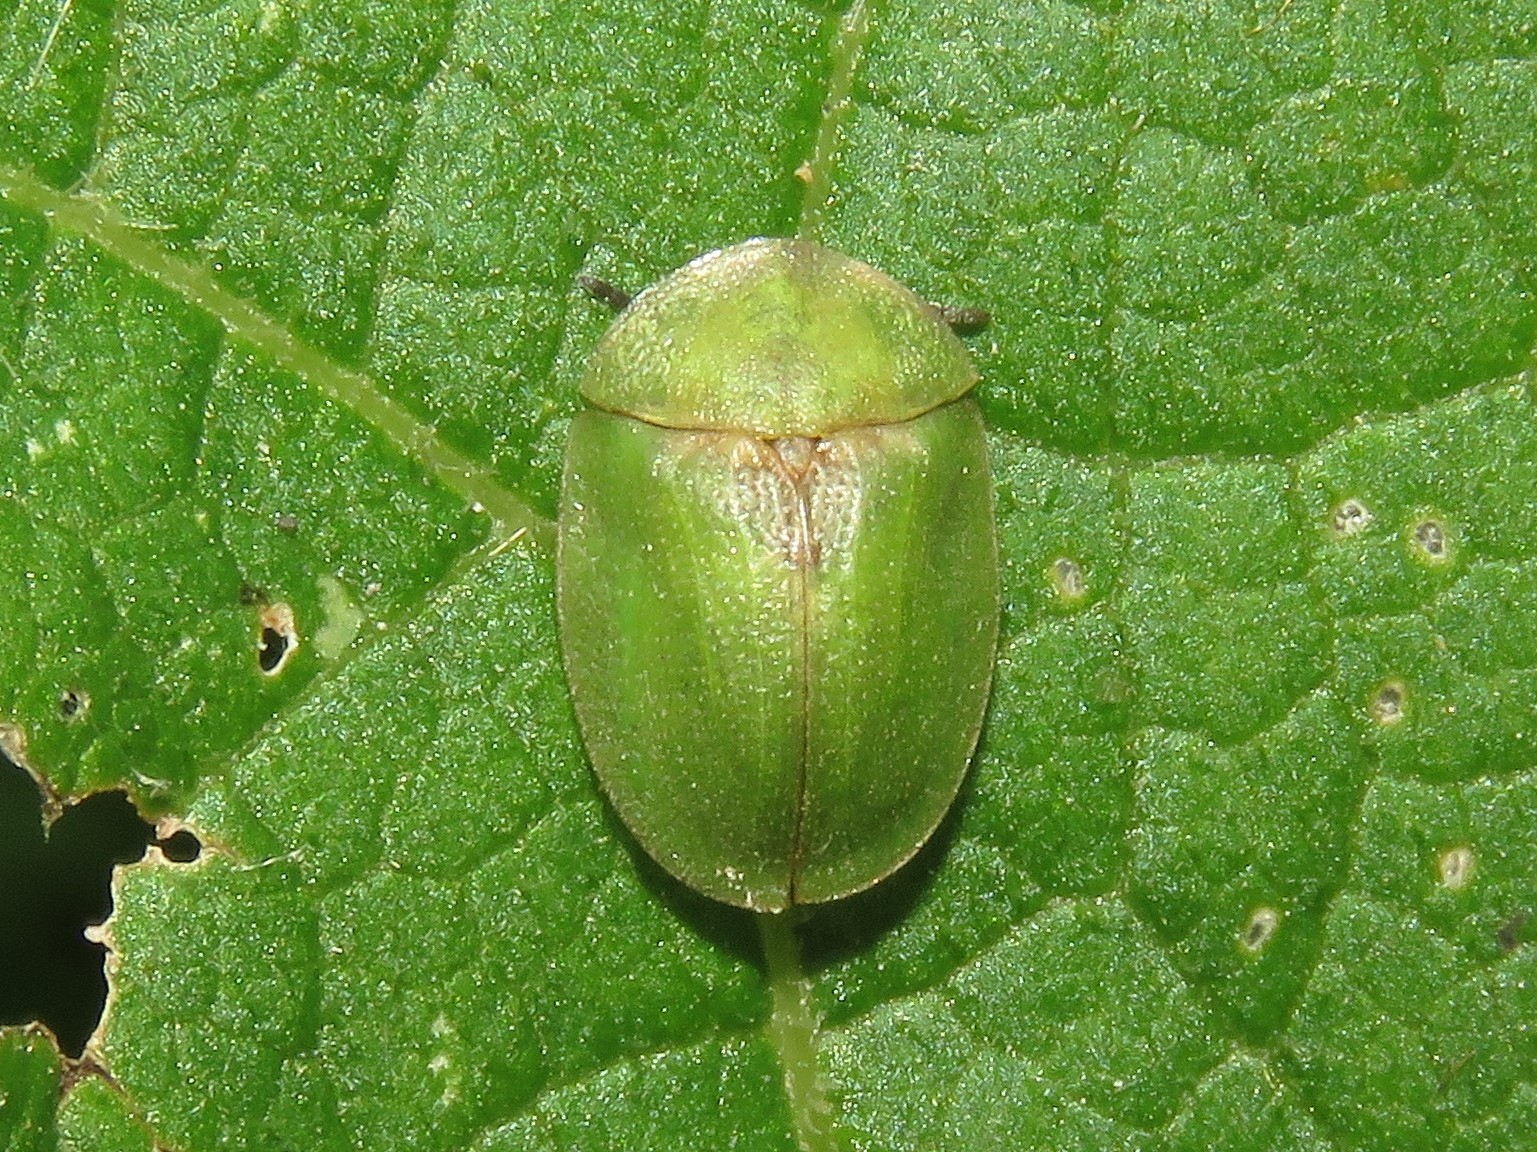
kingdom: Animalia
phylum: Arthropoda
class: Insecta
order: Coleoptera
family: Chrysomelidae
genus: Cassida
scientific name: Cassida rubiginosa
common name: Thistle tortoise beetle
